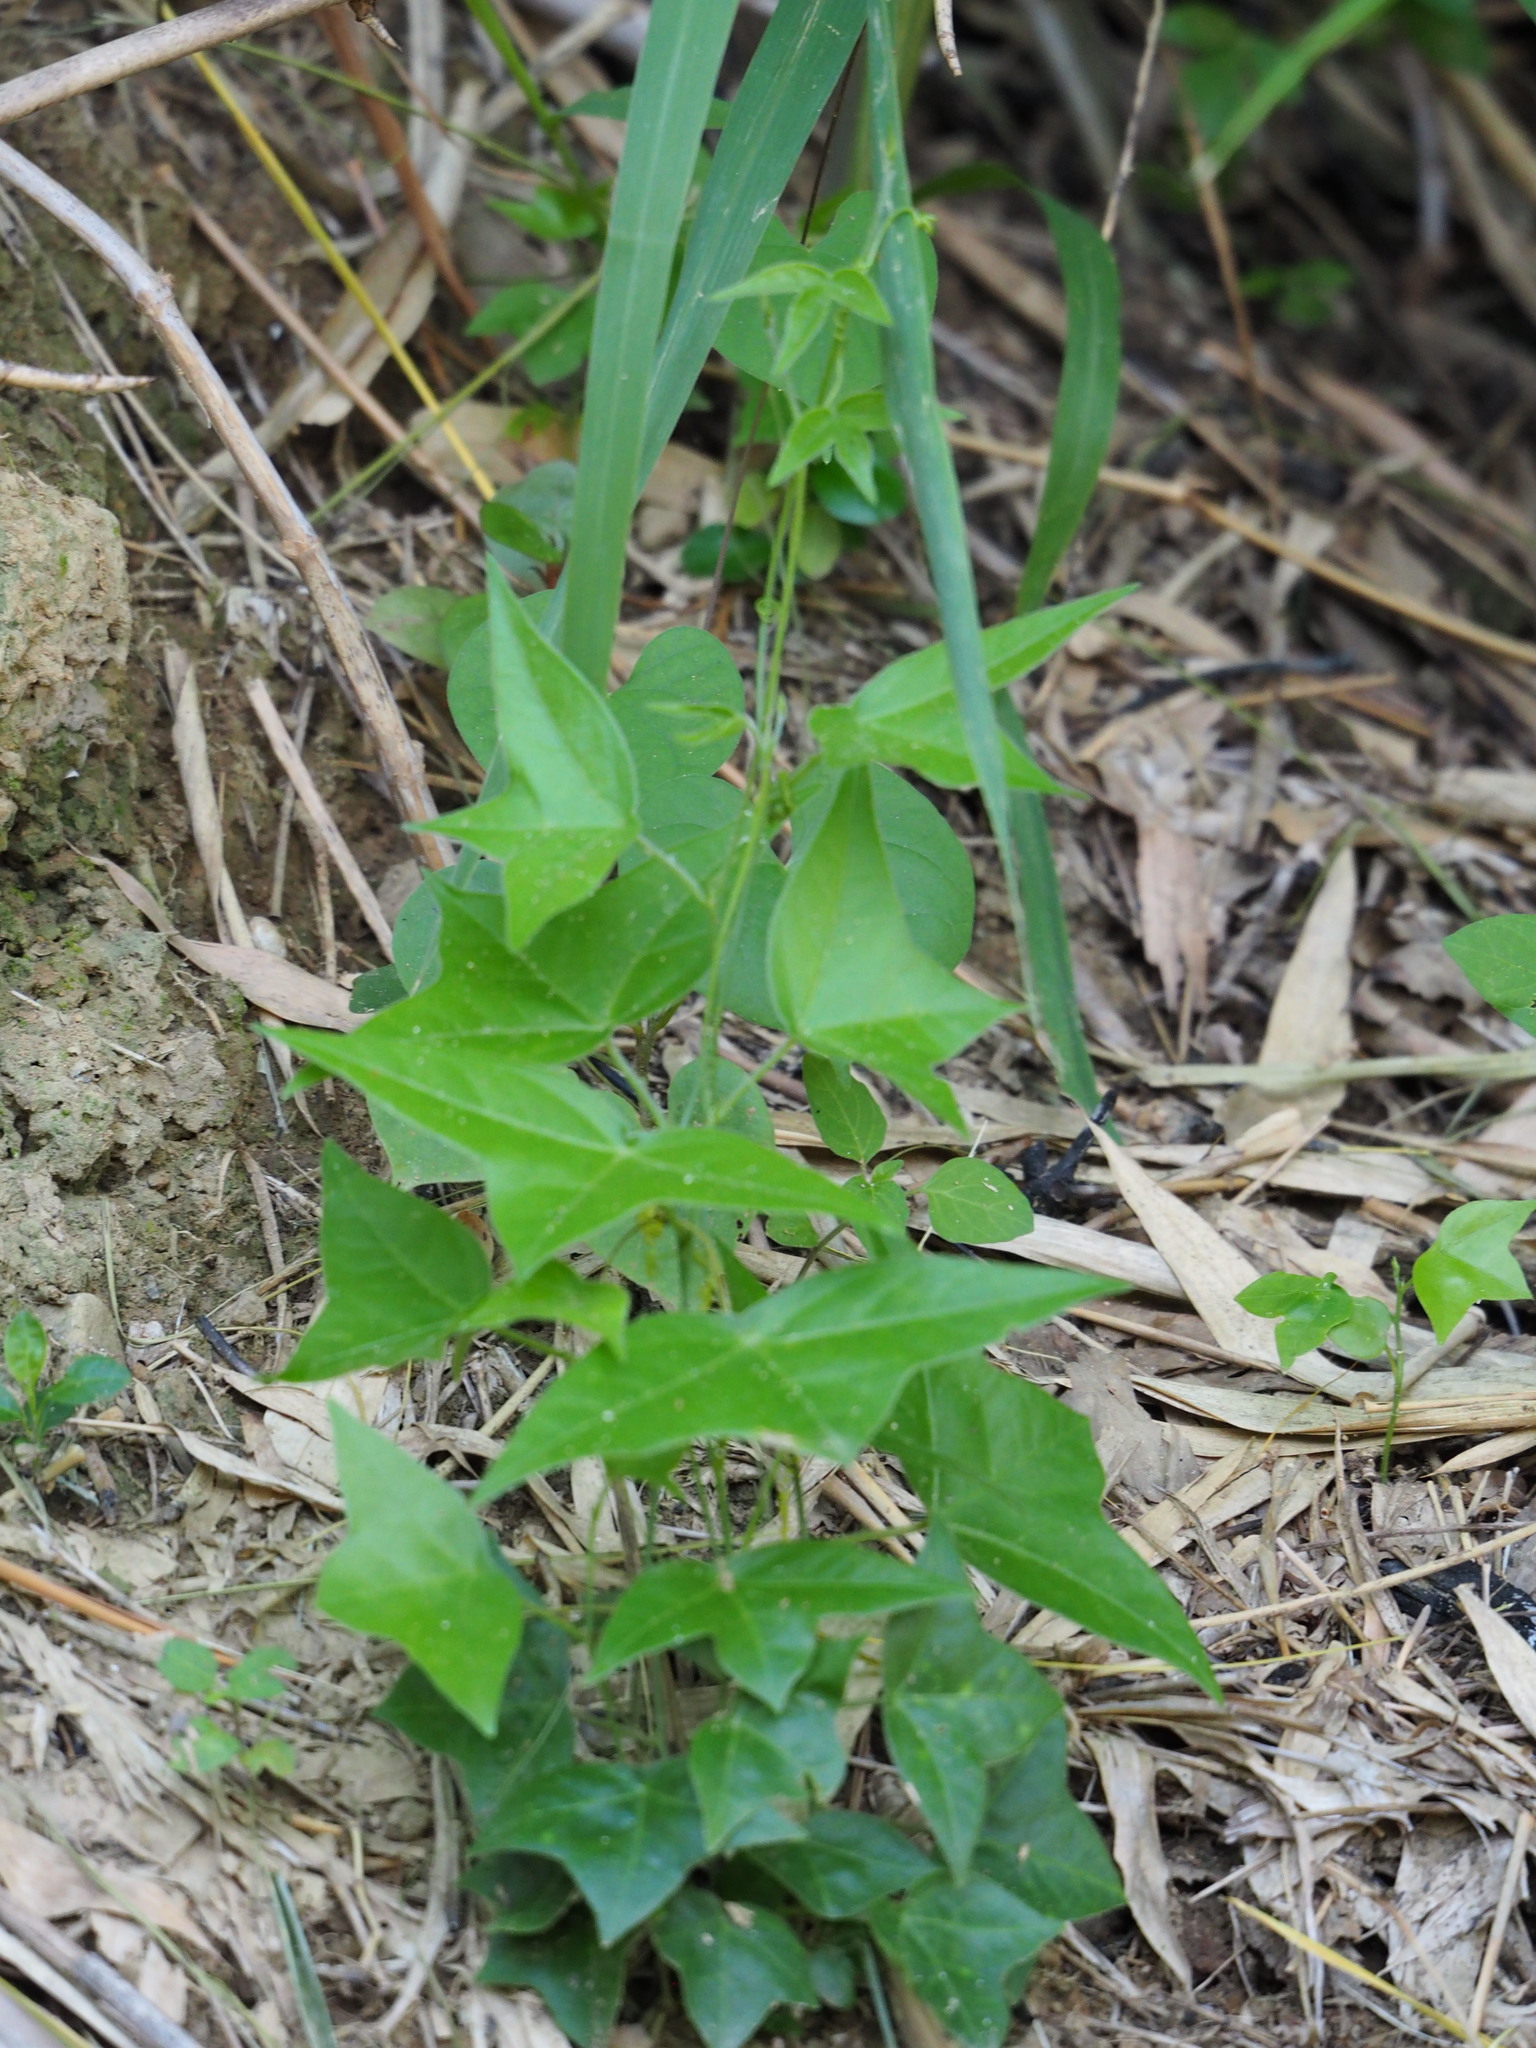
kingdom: Plantae
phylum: Tracheophyta
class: Magnoliopsida
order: Malpighiales
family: Passifloraceae
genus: Passiflora
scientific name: Passiflora suberosa
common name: Wild passionfruit
